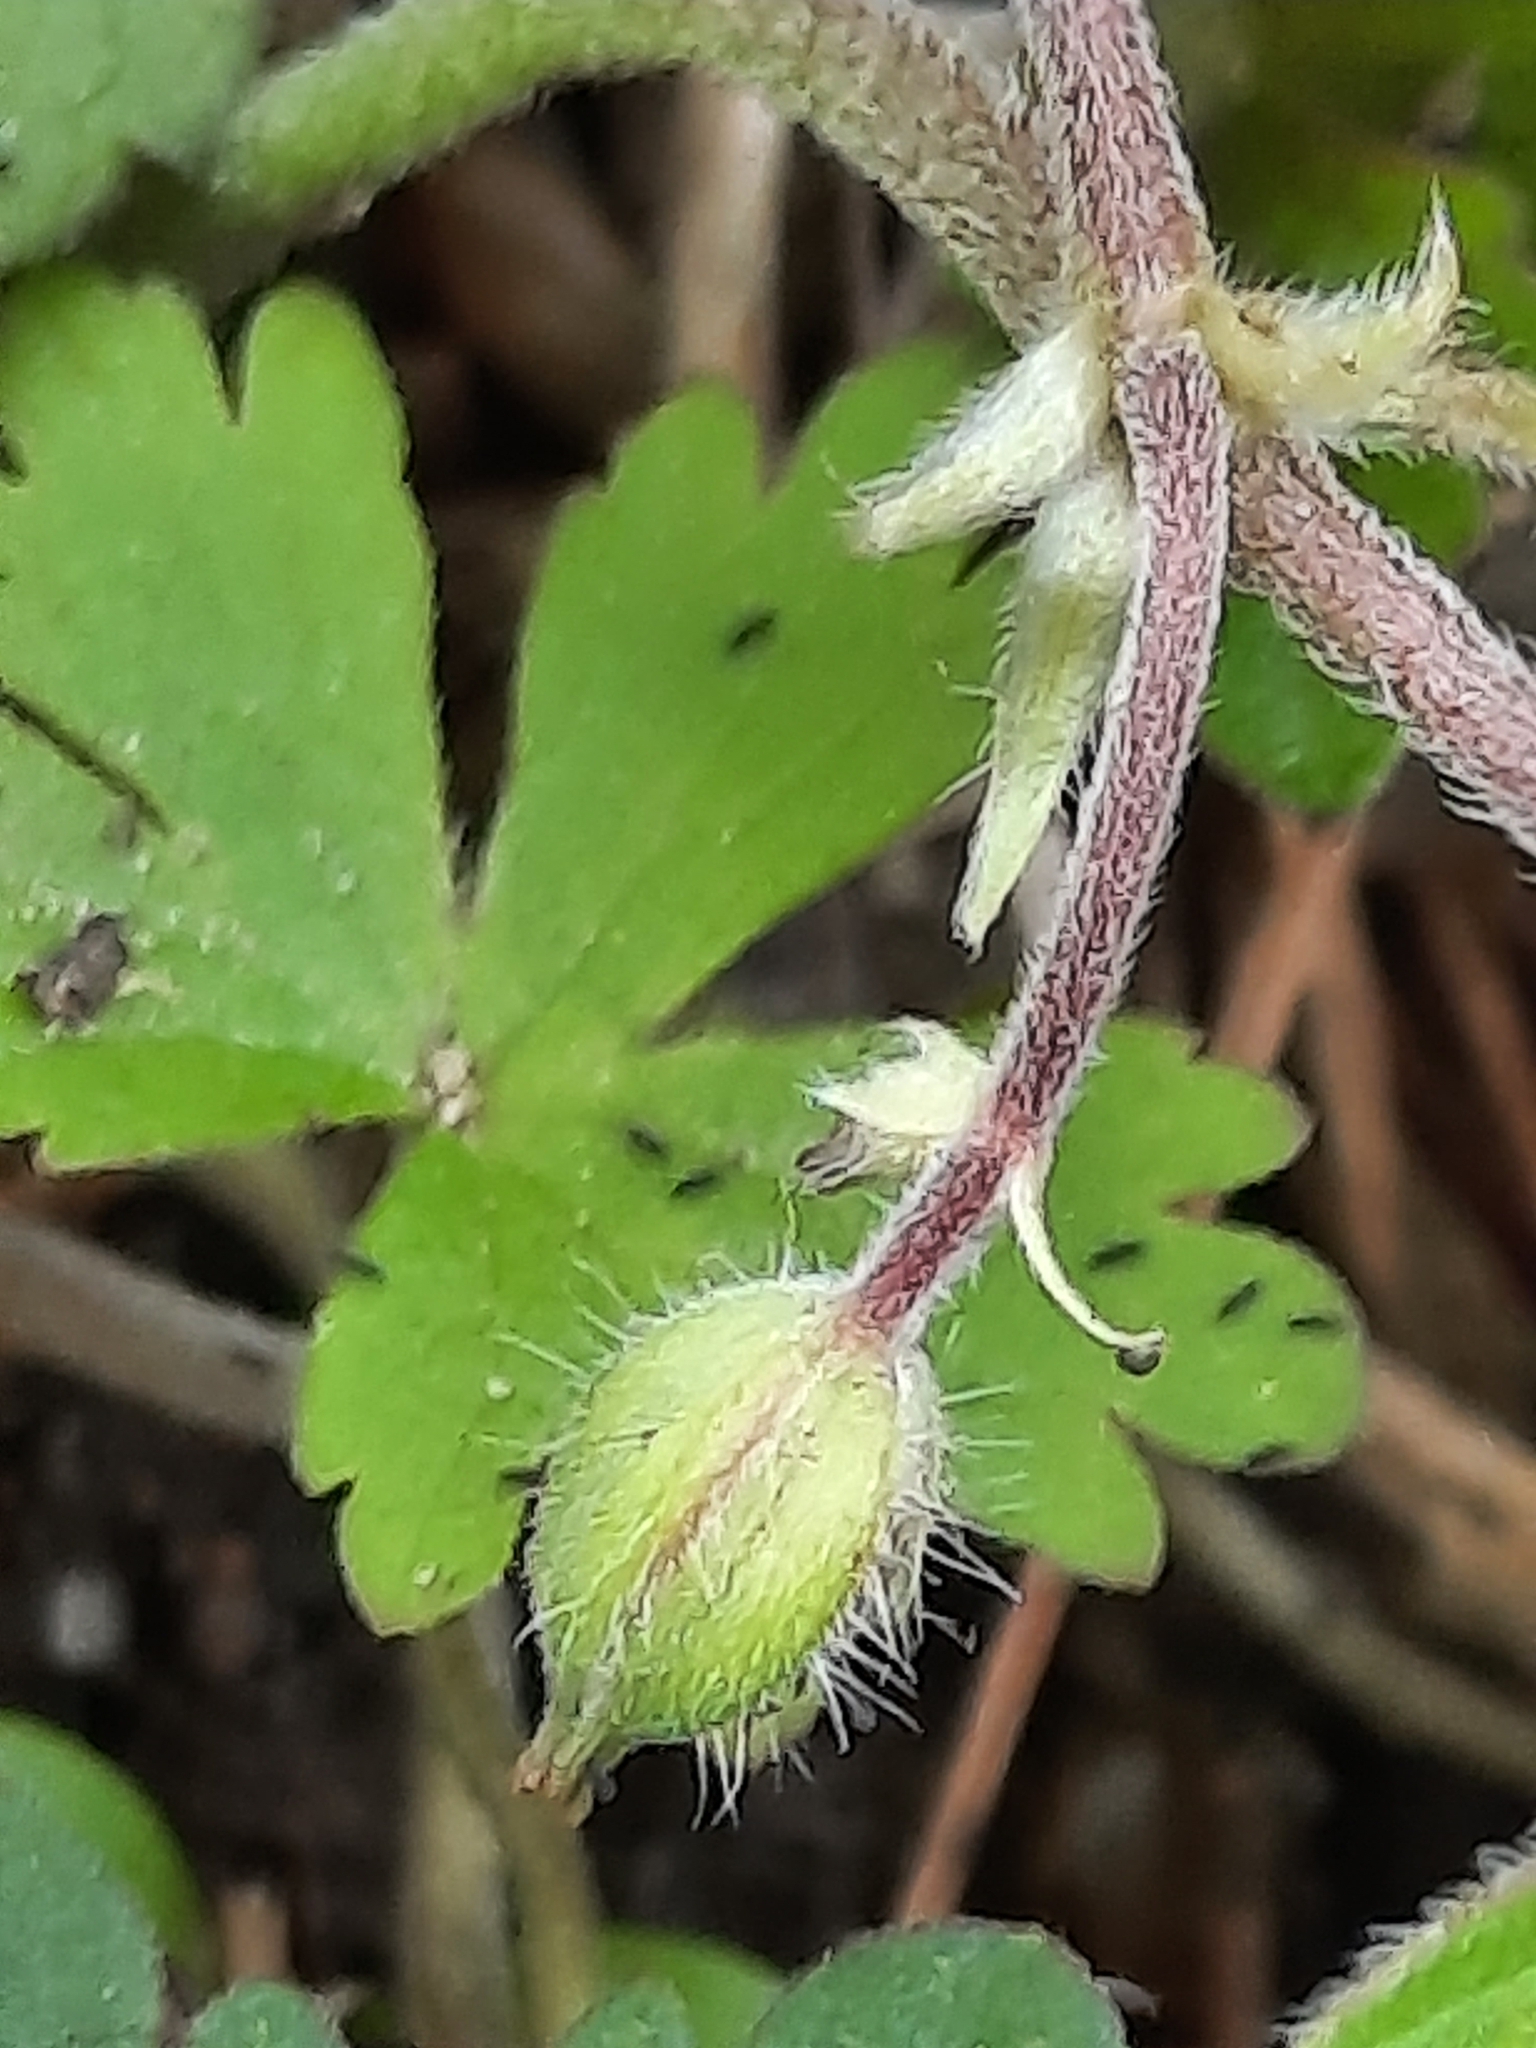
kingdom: Plantae
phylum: Tracheophyta
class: Magnoliopsida
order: Geraniales
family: Geraniaceae
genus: Geranium
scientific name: Geranium maculatum
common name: Spotted geranium
